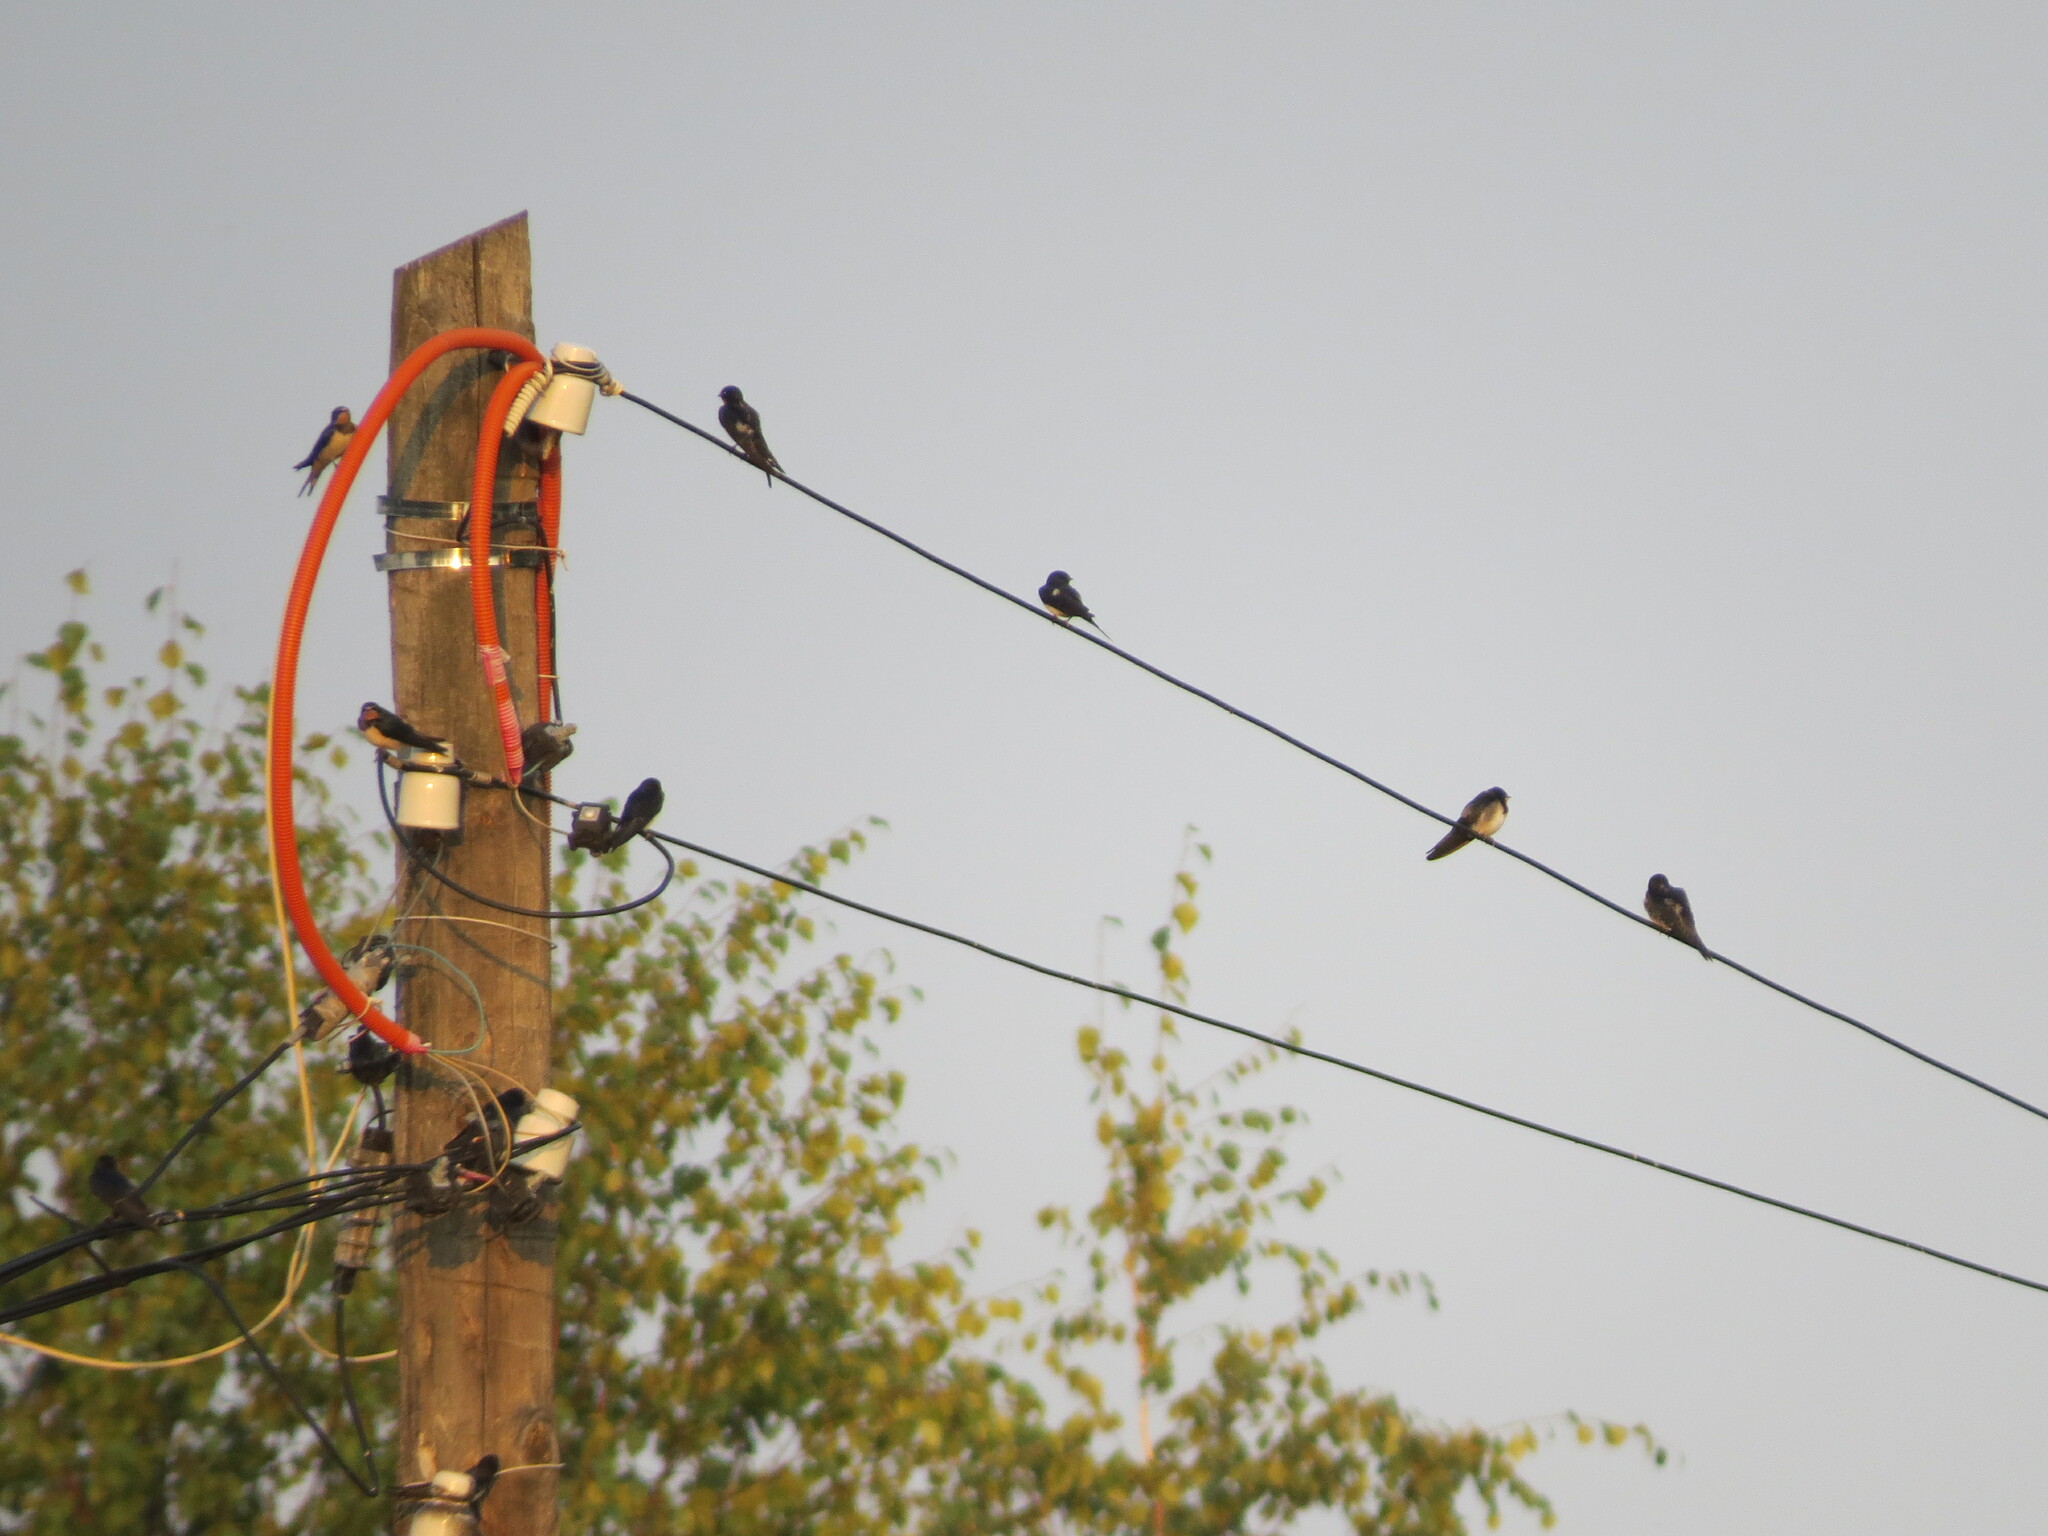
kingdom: Animalia
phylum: Chordata
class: Aves
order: Passeriformes
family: Hirundinidae
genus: Hirundo
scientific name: Hirundo rustica
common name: Barn swallow
